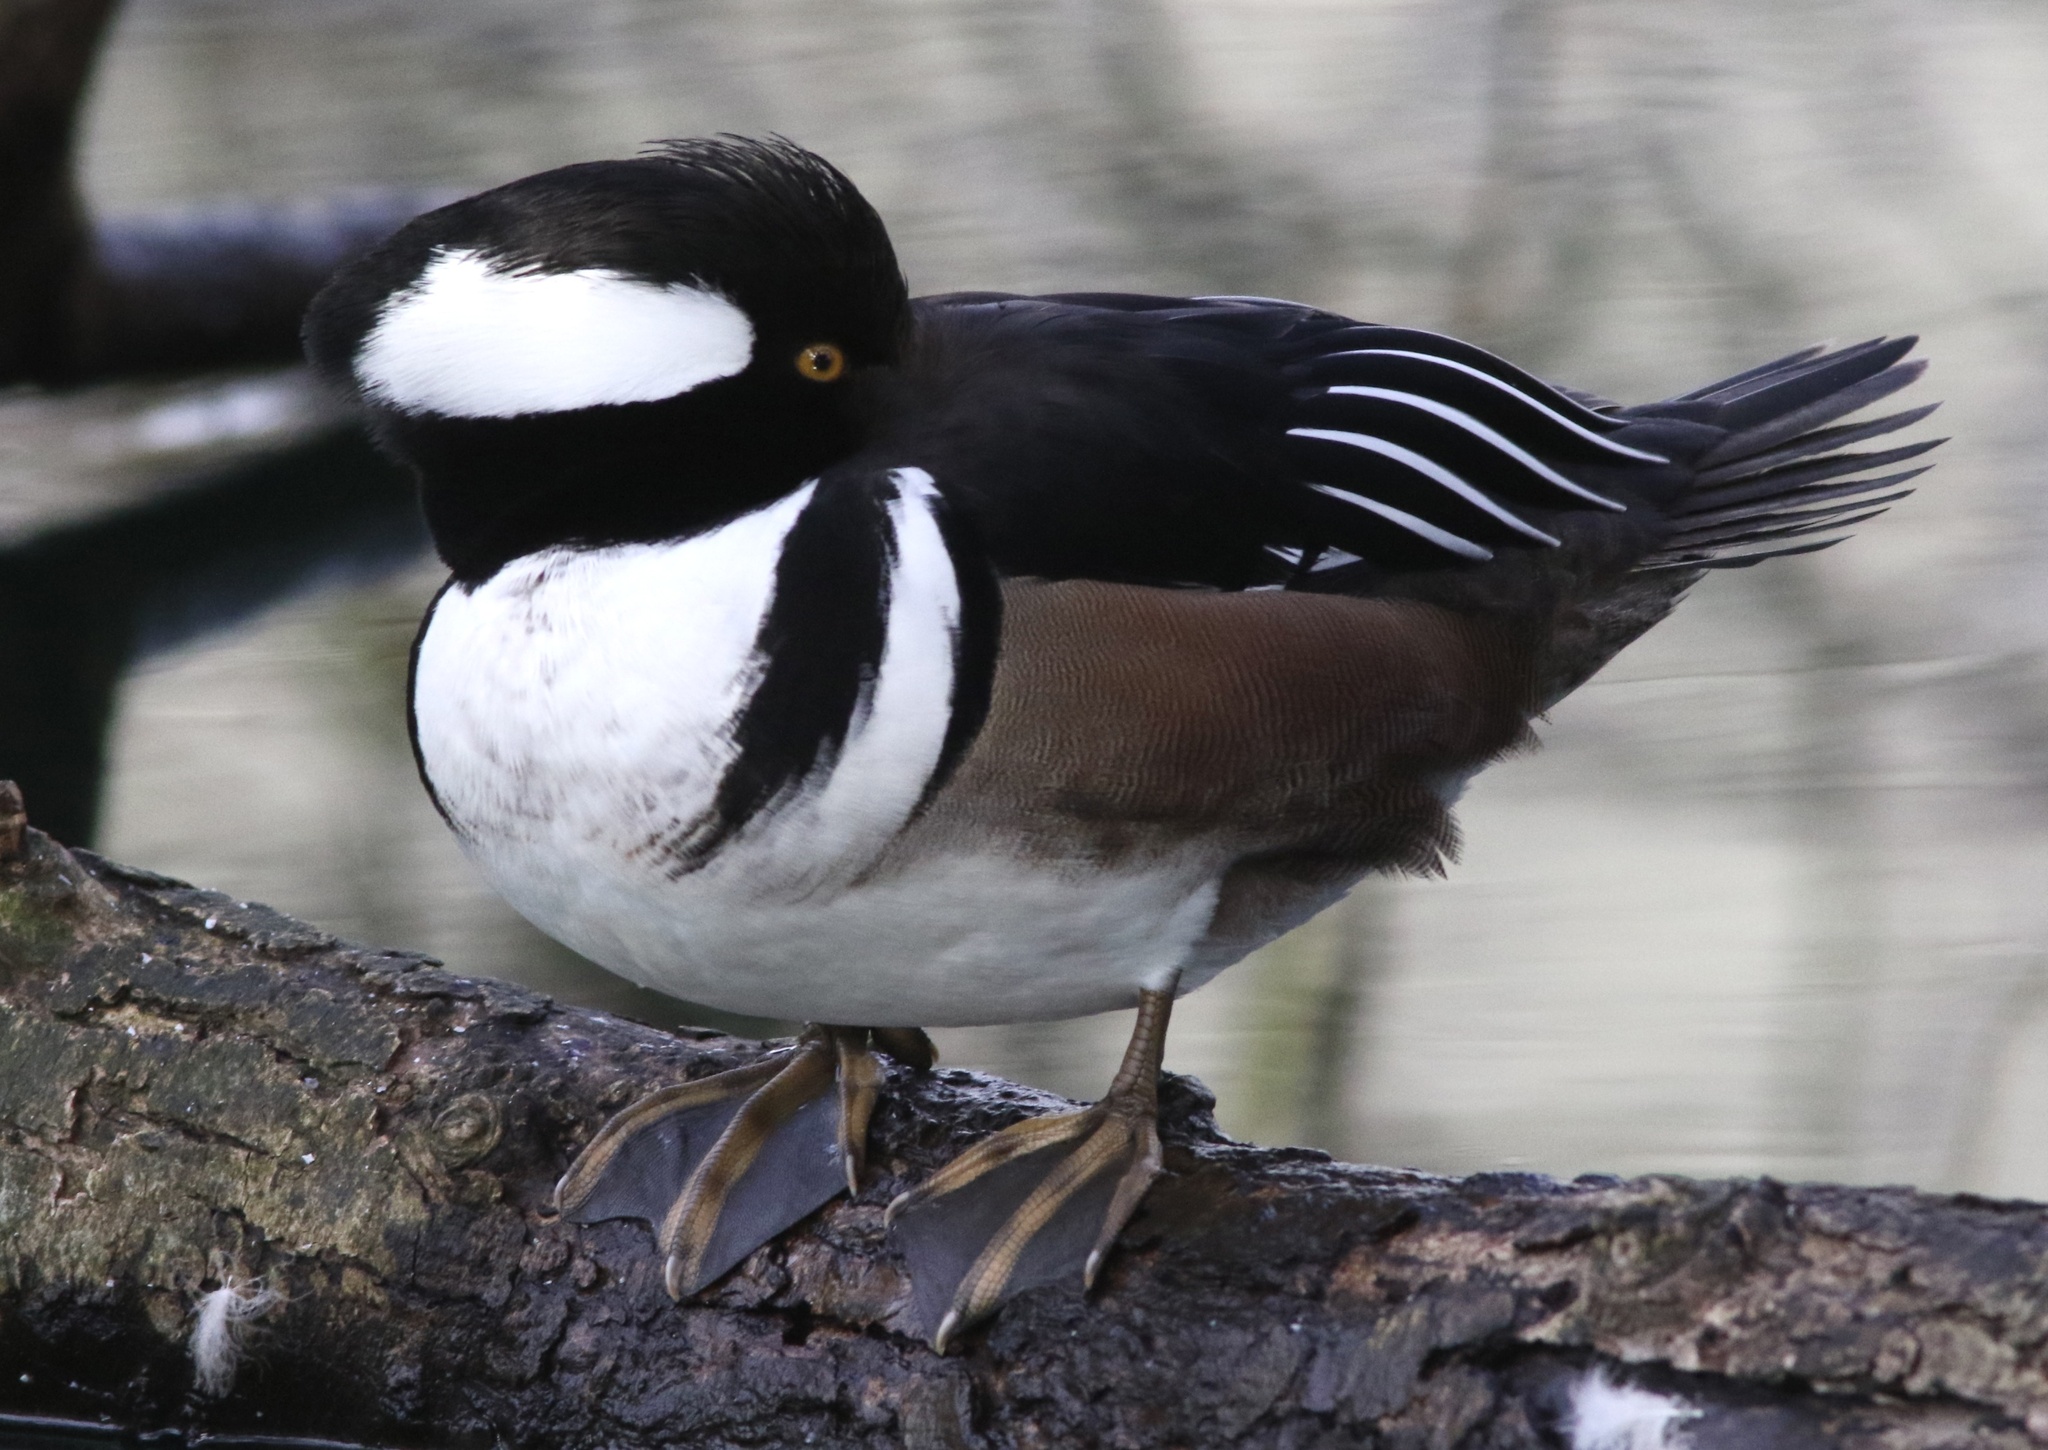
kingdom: Animalia
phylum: Chordata
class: Aves
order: Anseriformes
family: Anatidae
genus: Lophodytes
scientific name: Lophodytes cucullatus
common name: Hooded merganser
